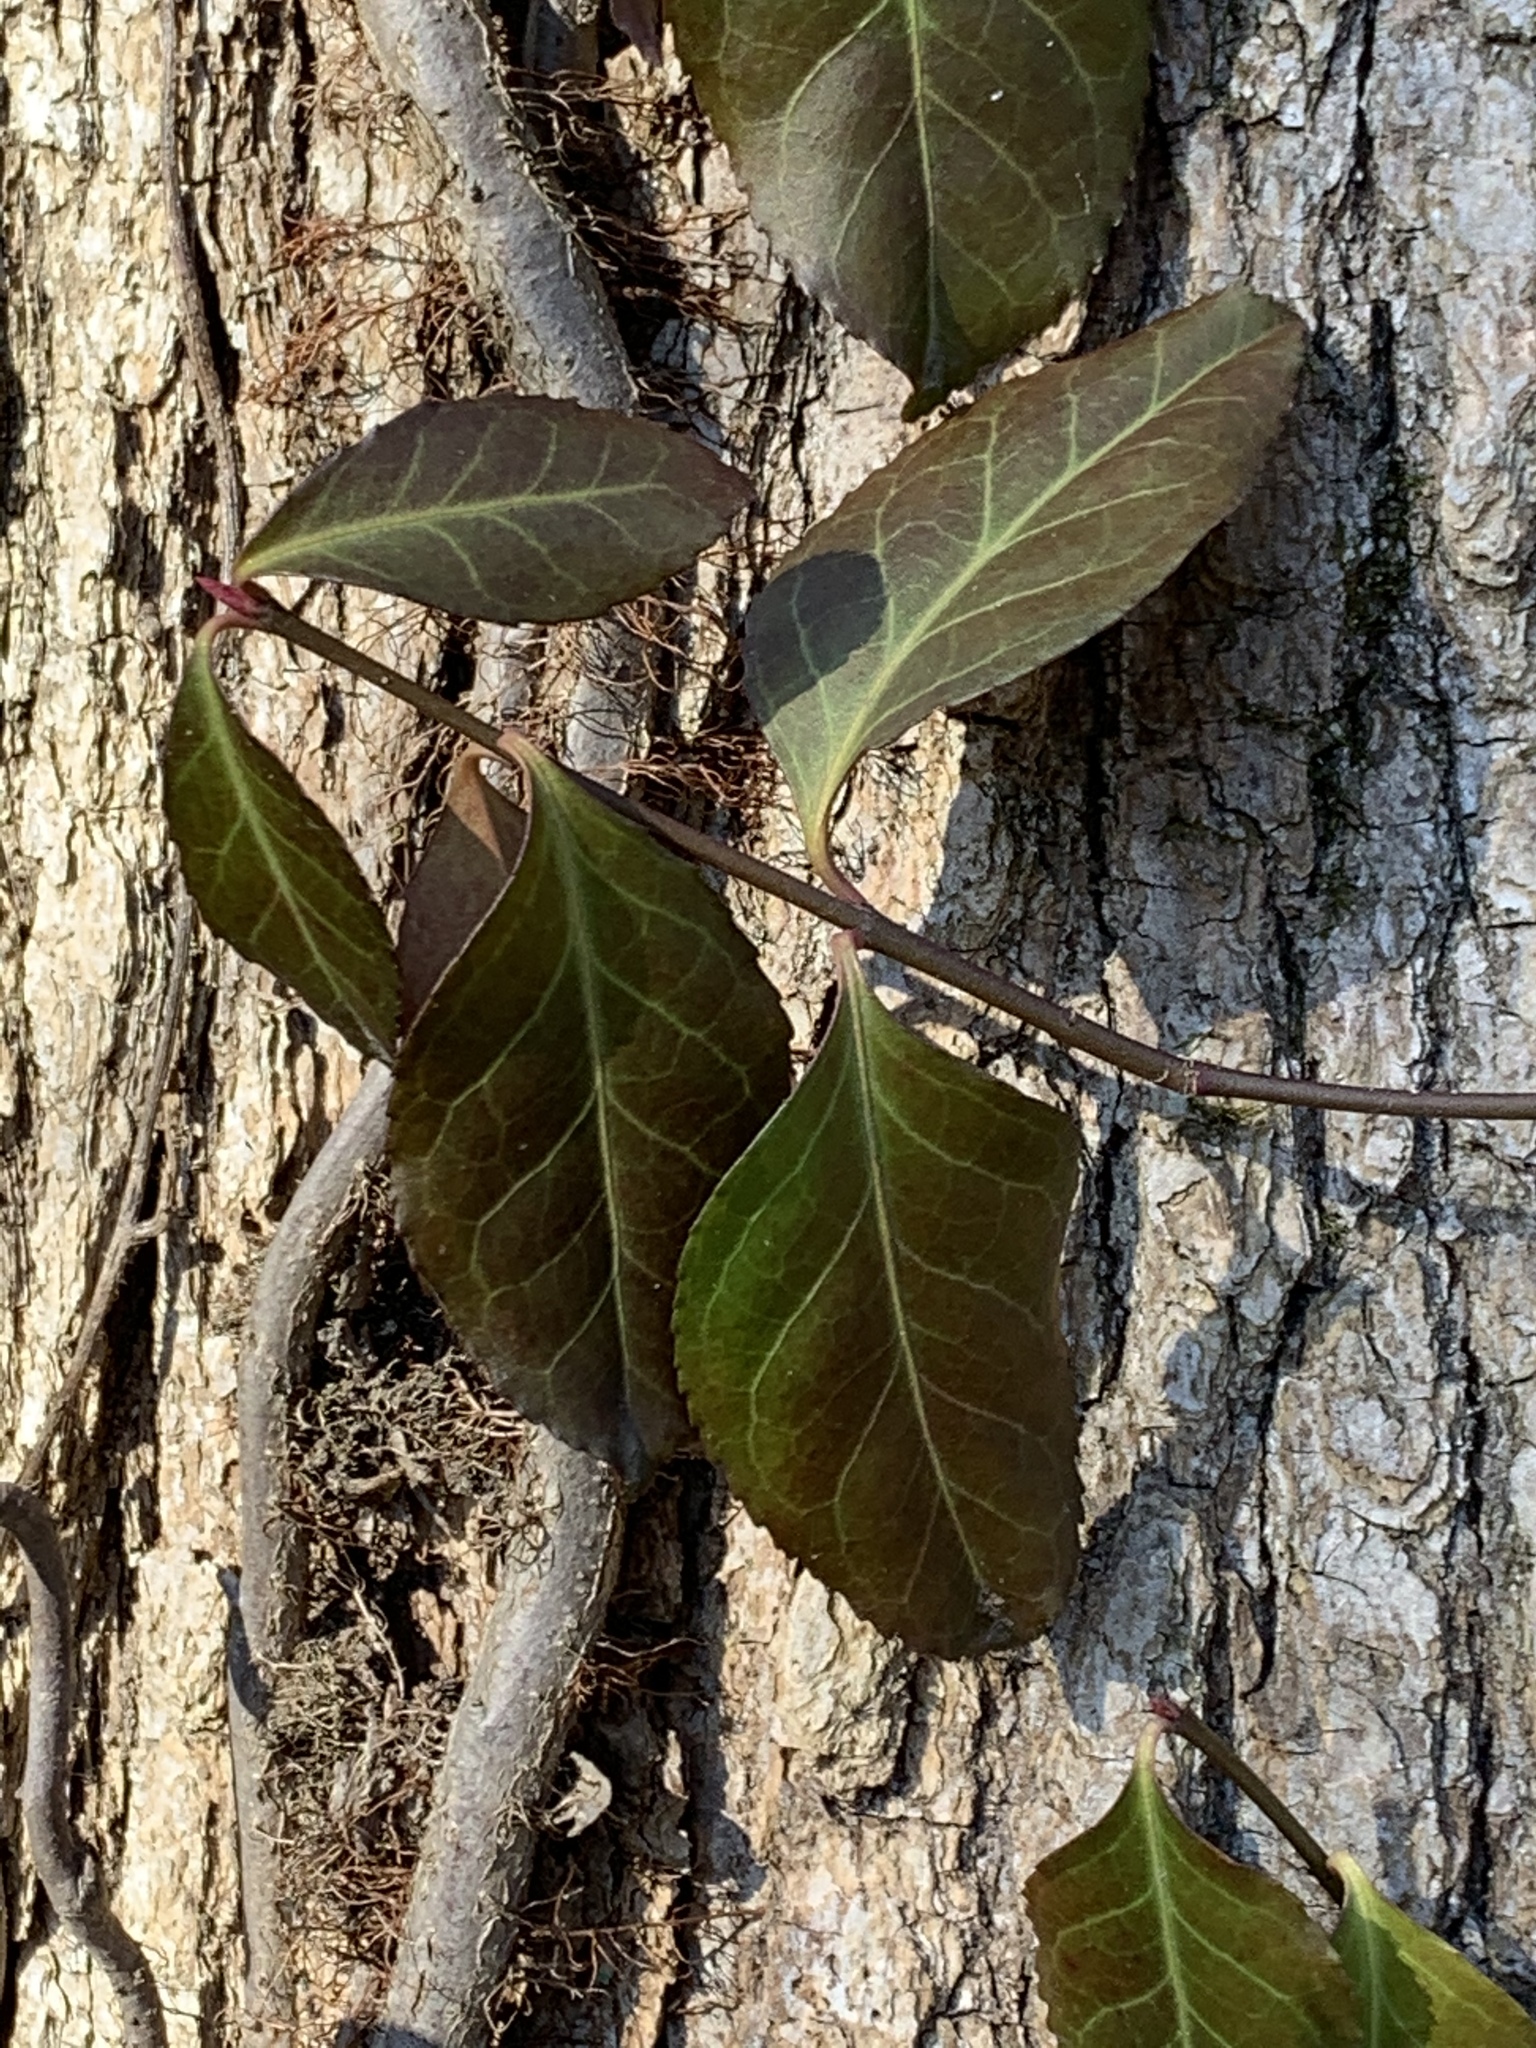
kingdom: Plantae
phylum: Tracheophyta
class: Magnoliopsida
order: Celastrales
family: Celastraceae
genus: Euonymus
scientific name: Euonymus fortunei
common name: Climbing euonymus
